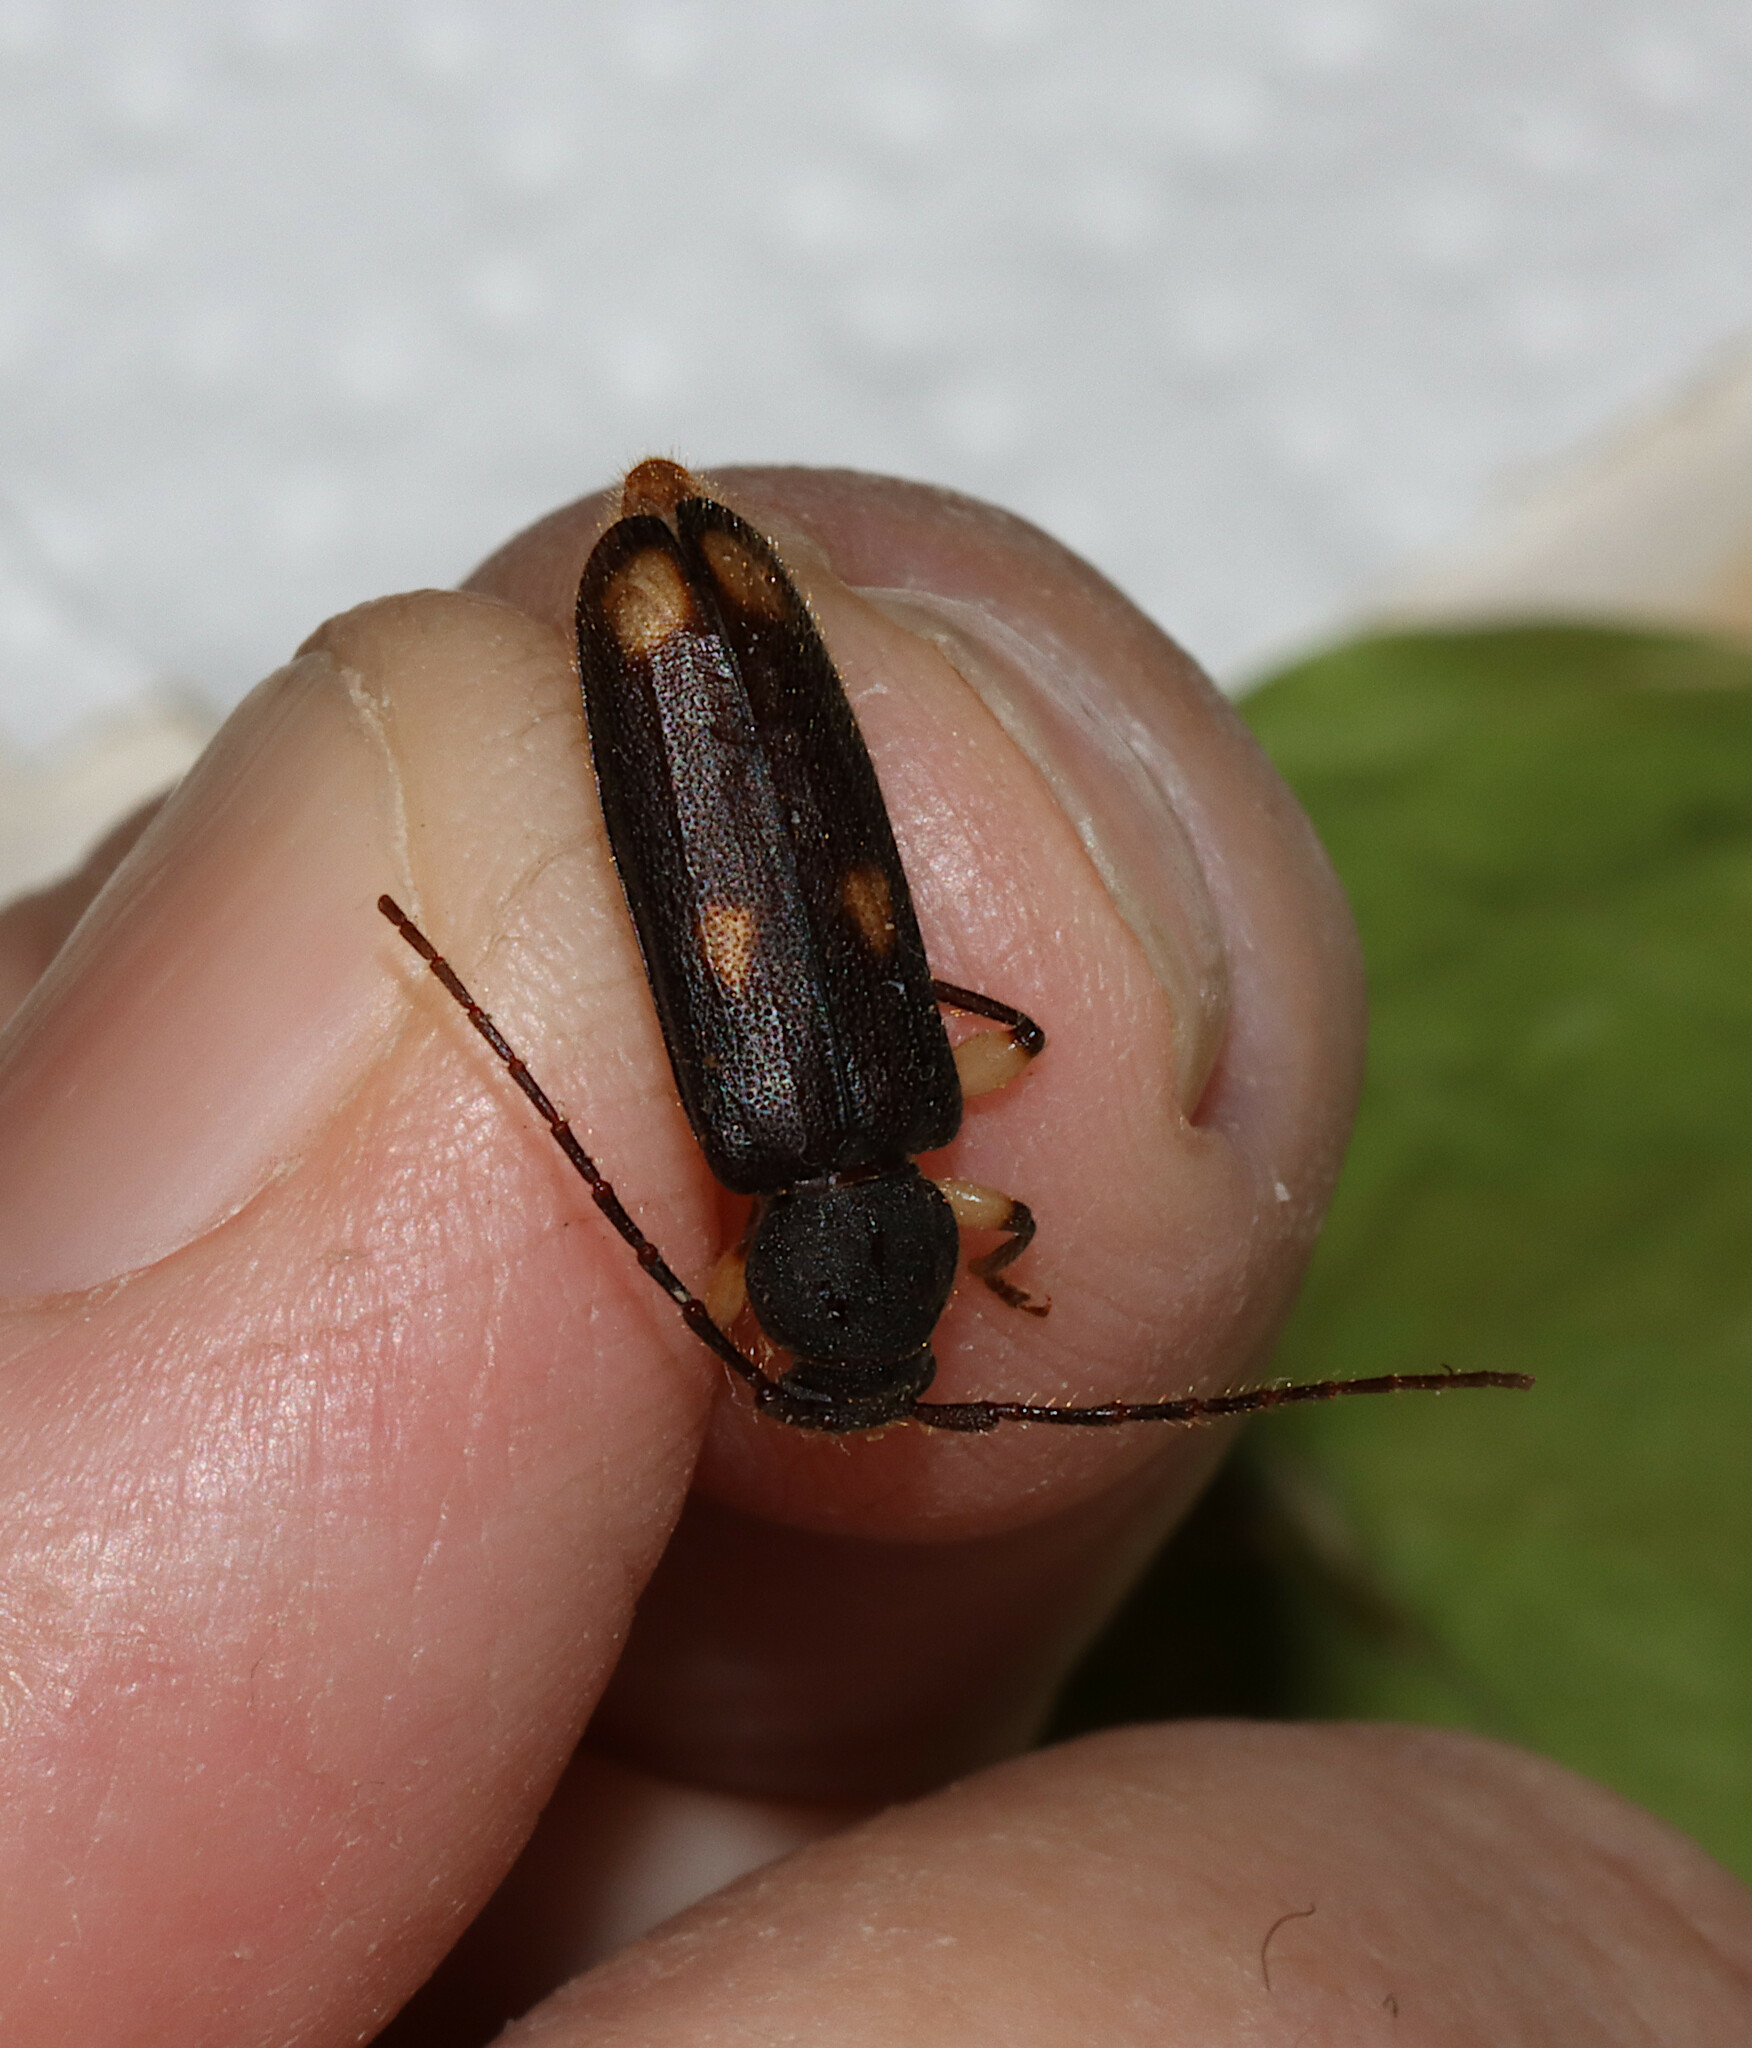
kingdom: Animalia
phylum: Arthropoda
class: Insecta
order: Coleoptera
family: Cerambycidae
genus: Tylonotus
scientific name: Tylonotus bimaculatus
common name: Ash and privet borer
